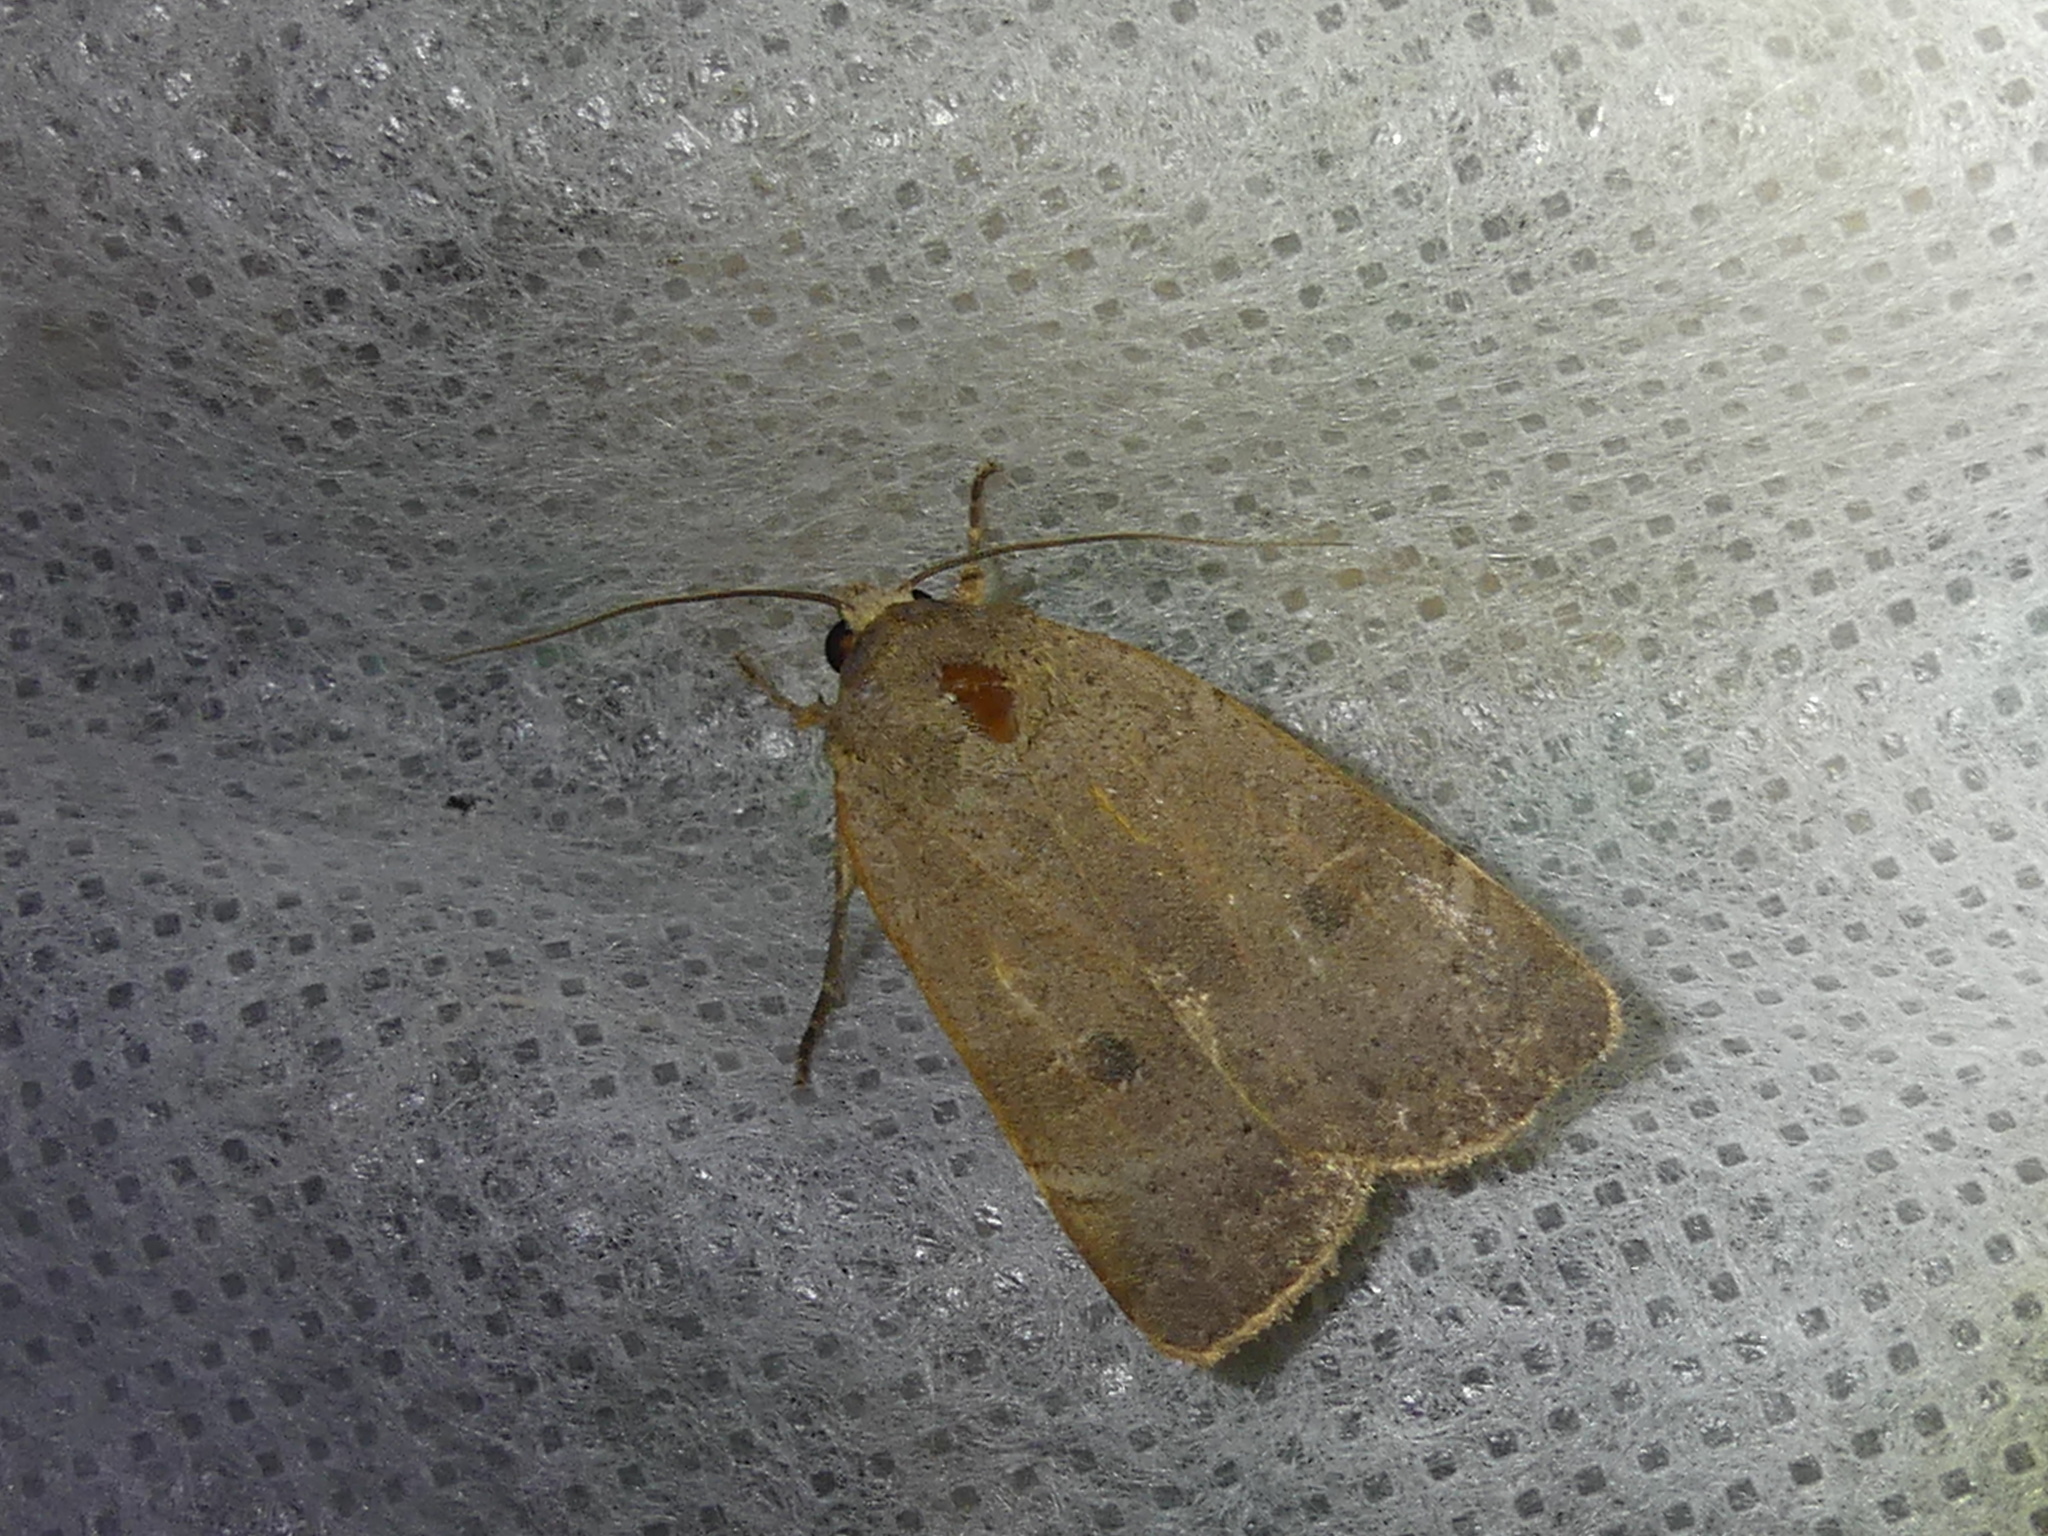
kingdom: Animalia
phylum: Arthropoda
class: Insecta
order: Lepidoptera
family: Noctuidae
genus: Noctua
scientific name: Noctua comes
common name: Lesser yellow underwing
